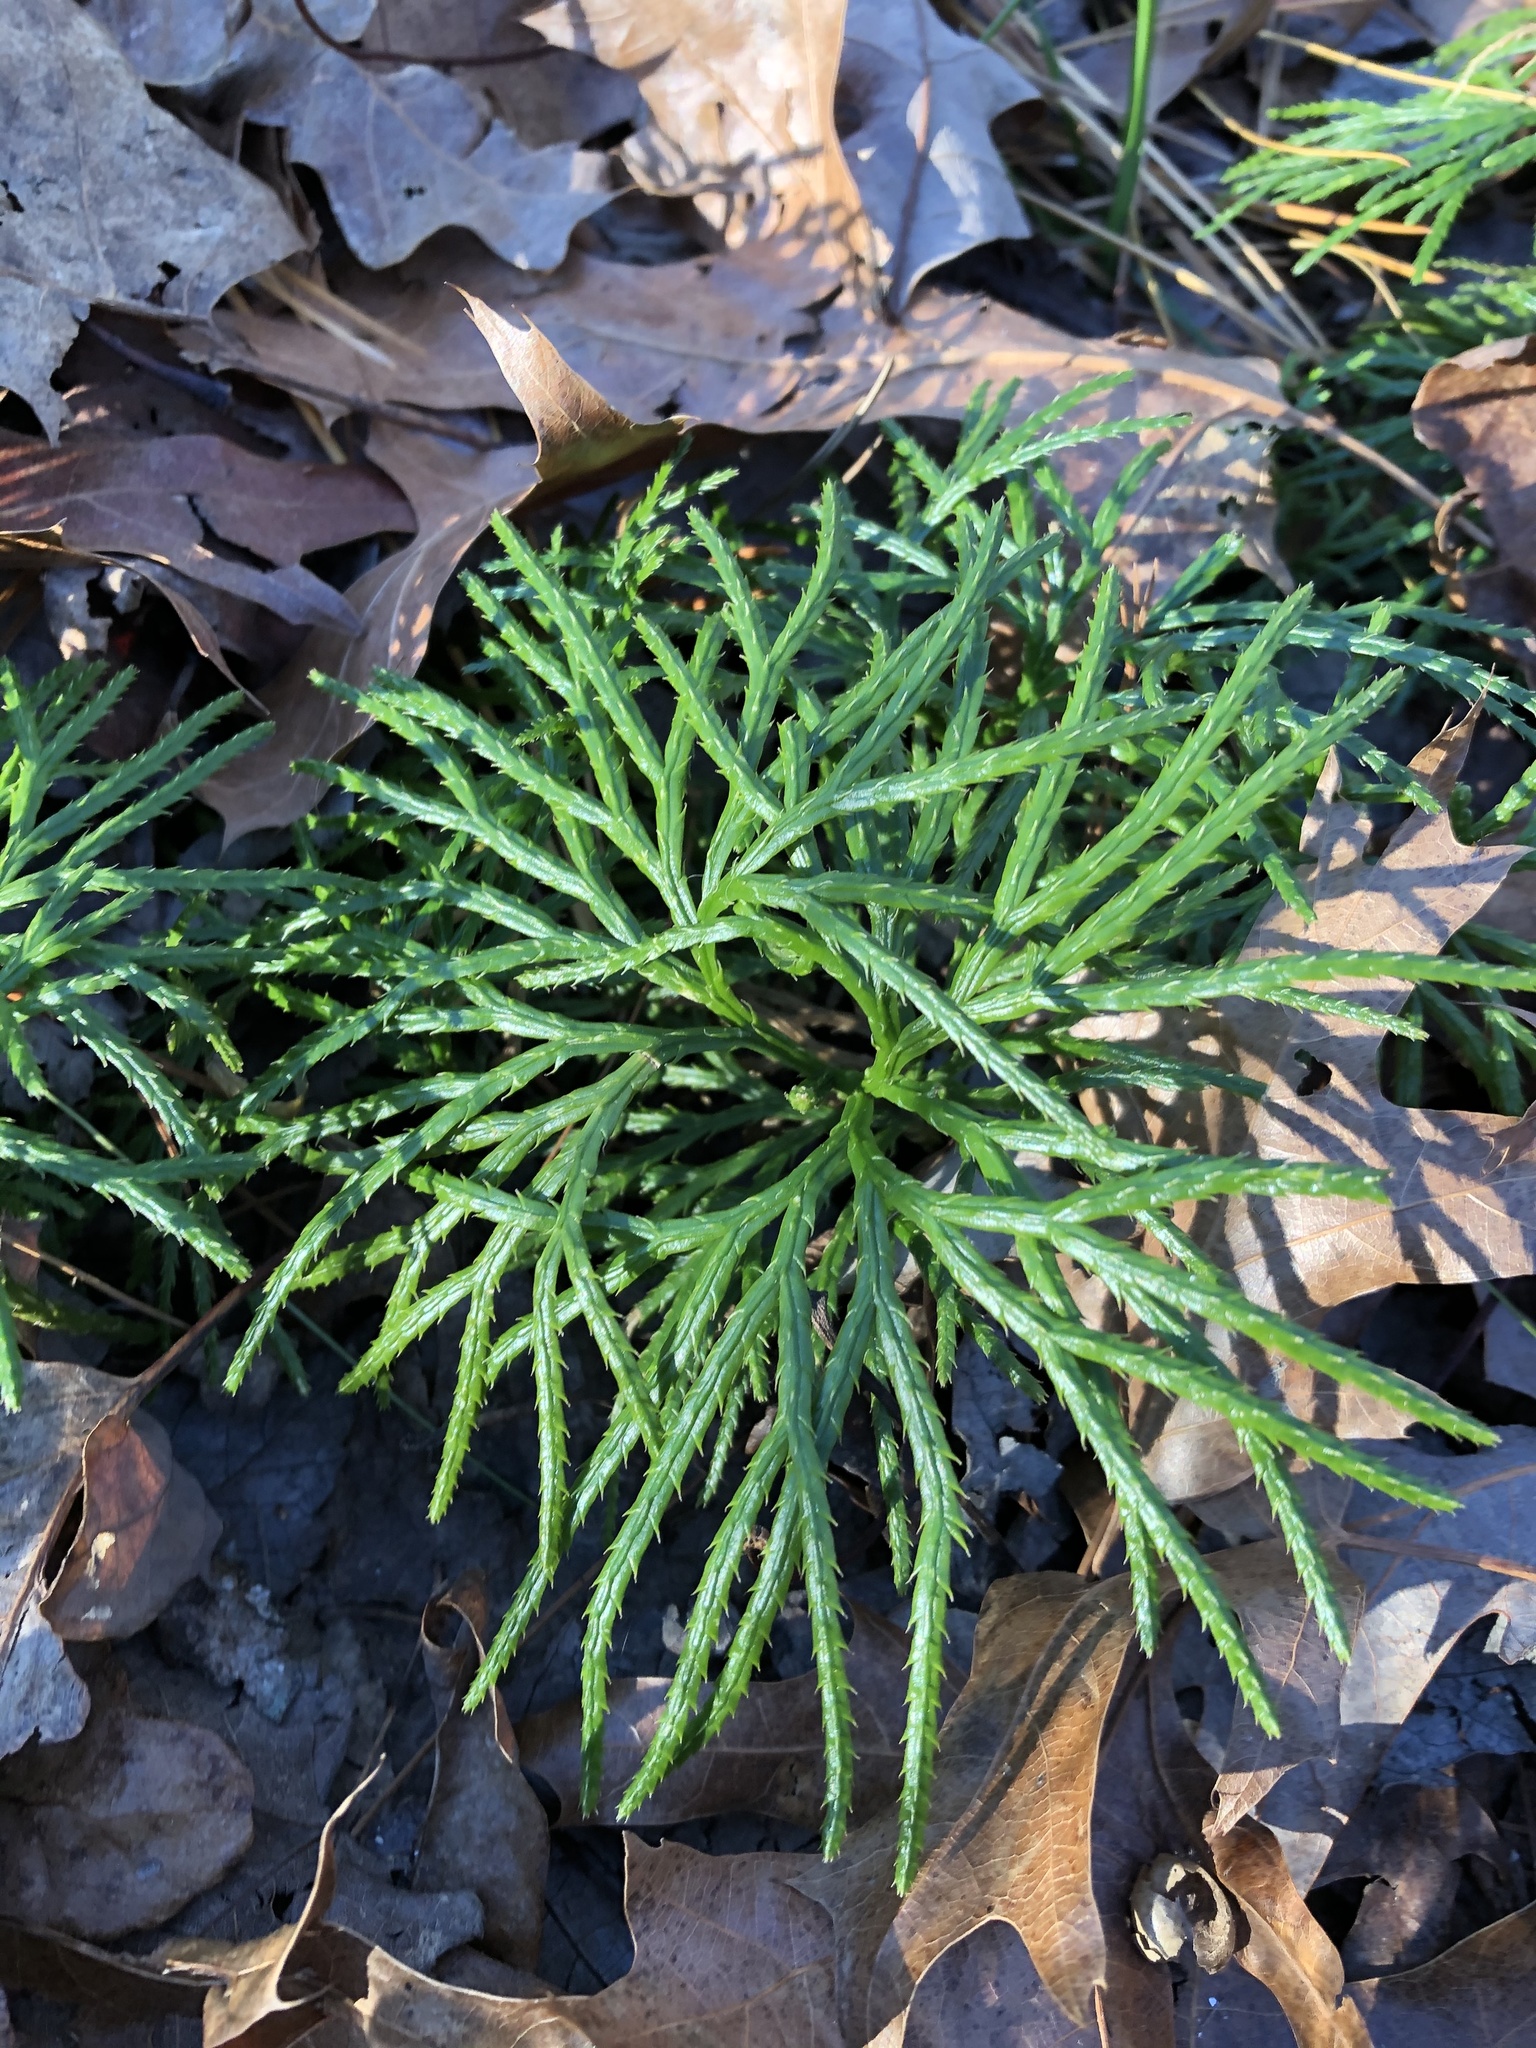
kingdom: Plantae
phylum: Tracheophyta
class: Lycopodiopsida
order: Lycopodiales
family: Lycopodiaceae
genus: Diphasiastrum
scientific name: Diphasiastrum digitatum
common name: Southern running-pine
